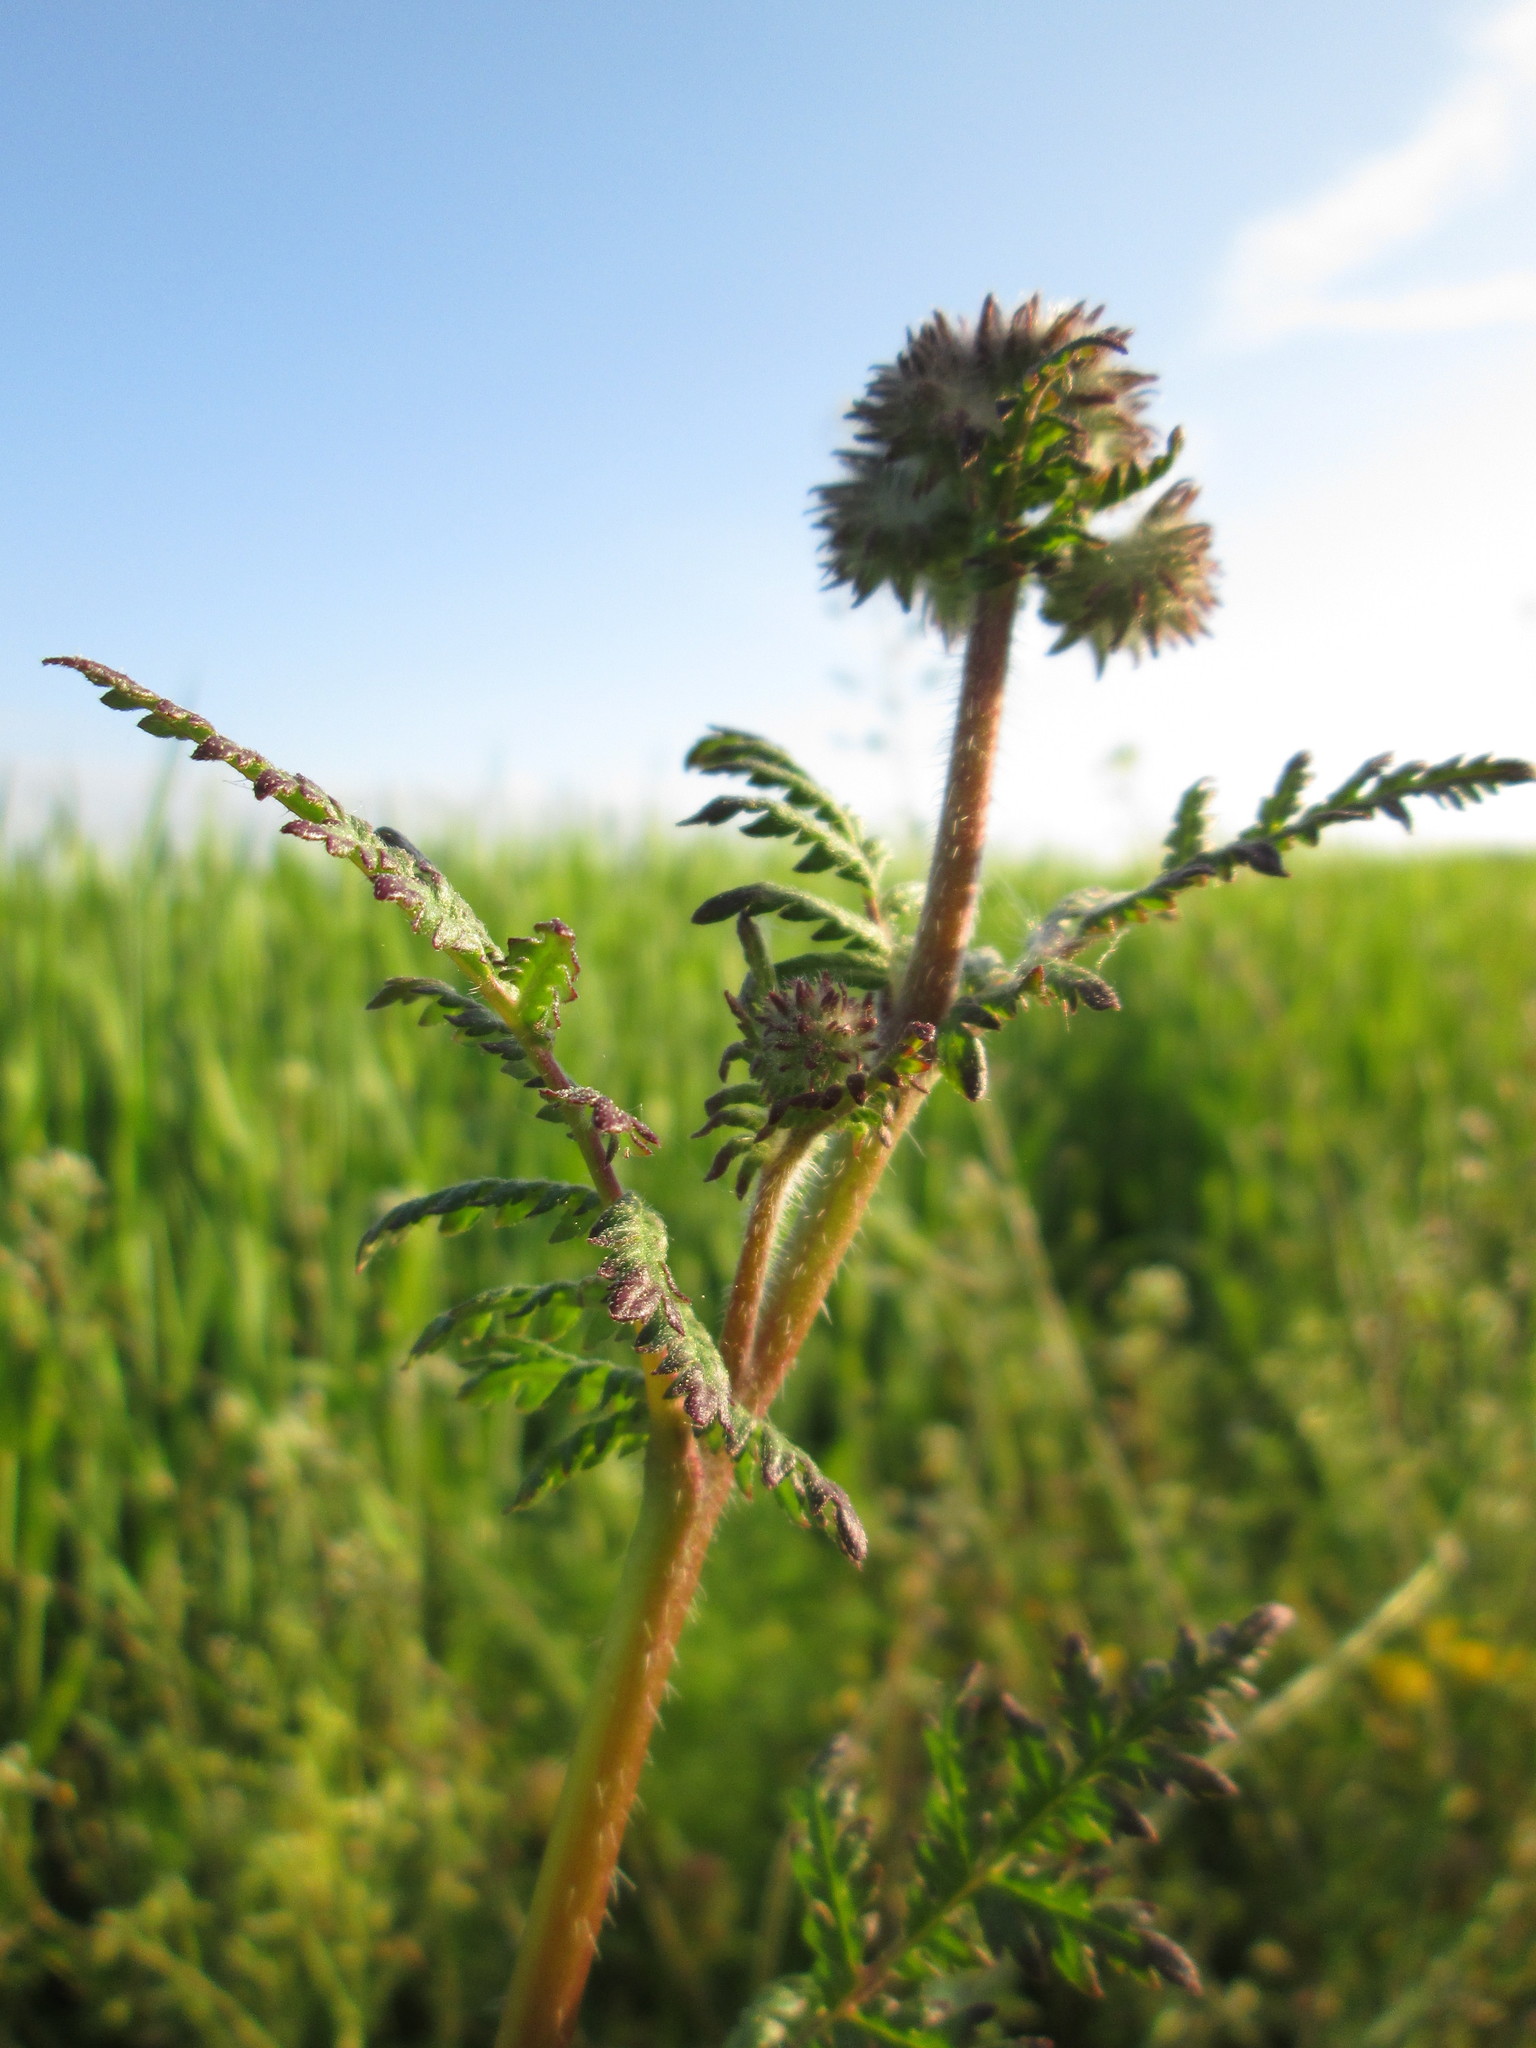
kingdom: Plantae
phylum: Tracheophyta
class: Magnoliopsida
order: Boraginales
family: Hydrophyllaceae
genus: Phacelia
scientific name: Phacelia tanacetifolia
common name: Phacelia
